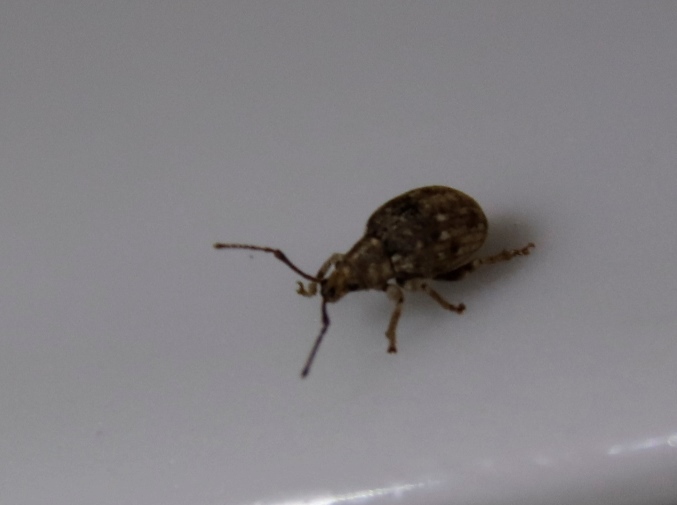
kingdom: Animalia
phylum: Arthropoda
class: Insecta
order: Coleoptera
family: Curculionidae
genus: Ellimenistes
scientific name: Ellimenistes laesicollis
